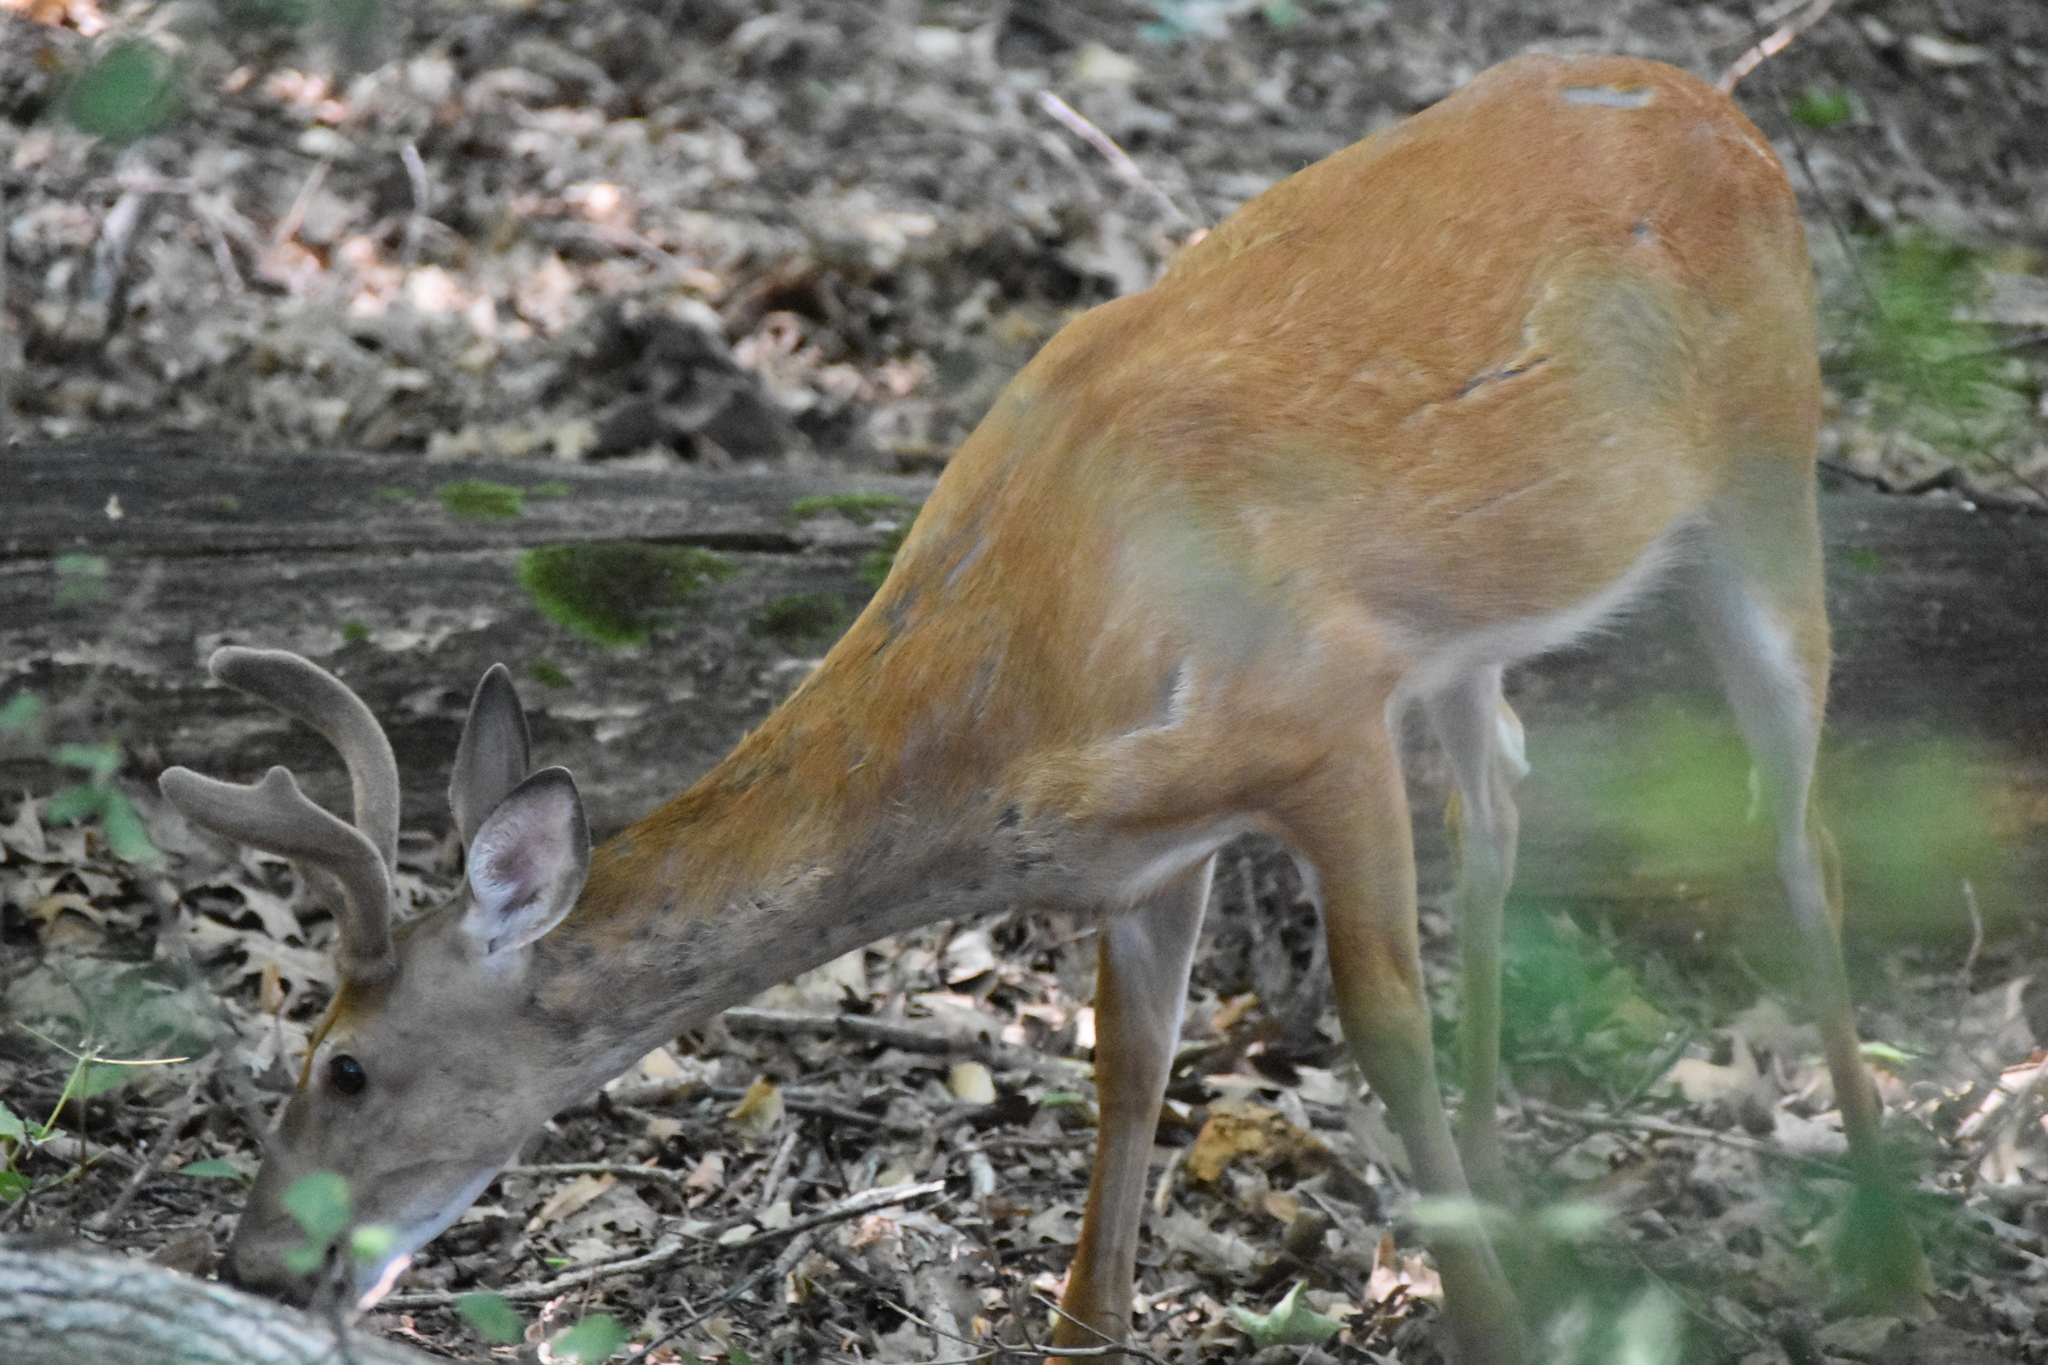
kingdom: Animalia
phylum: Chordata
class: Mammalia
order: Artiodactyla
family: Cervidae
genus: Odocoileus
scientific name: Odocoileus virginianus
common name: White-tailed deer
